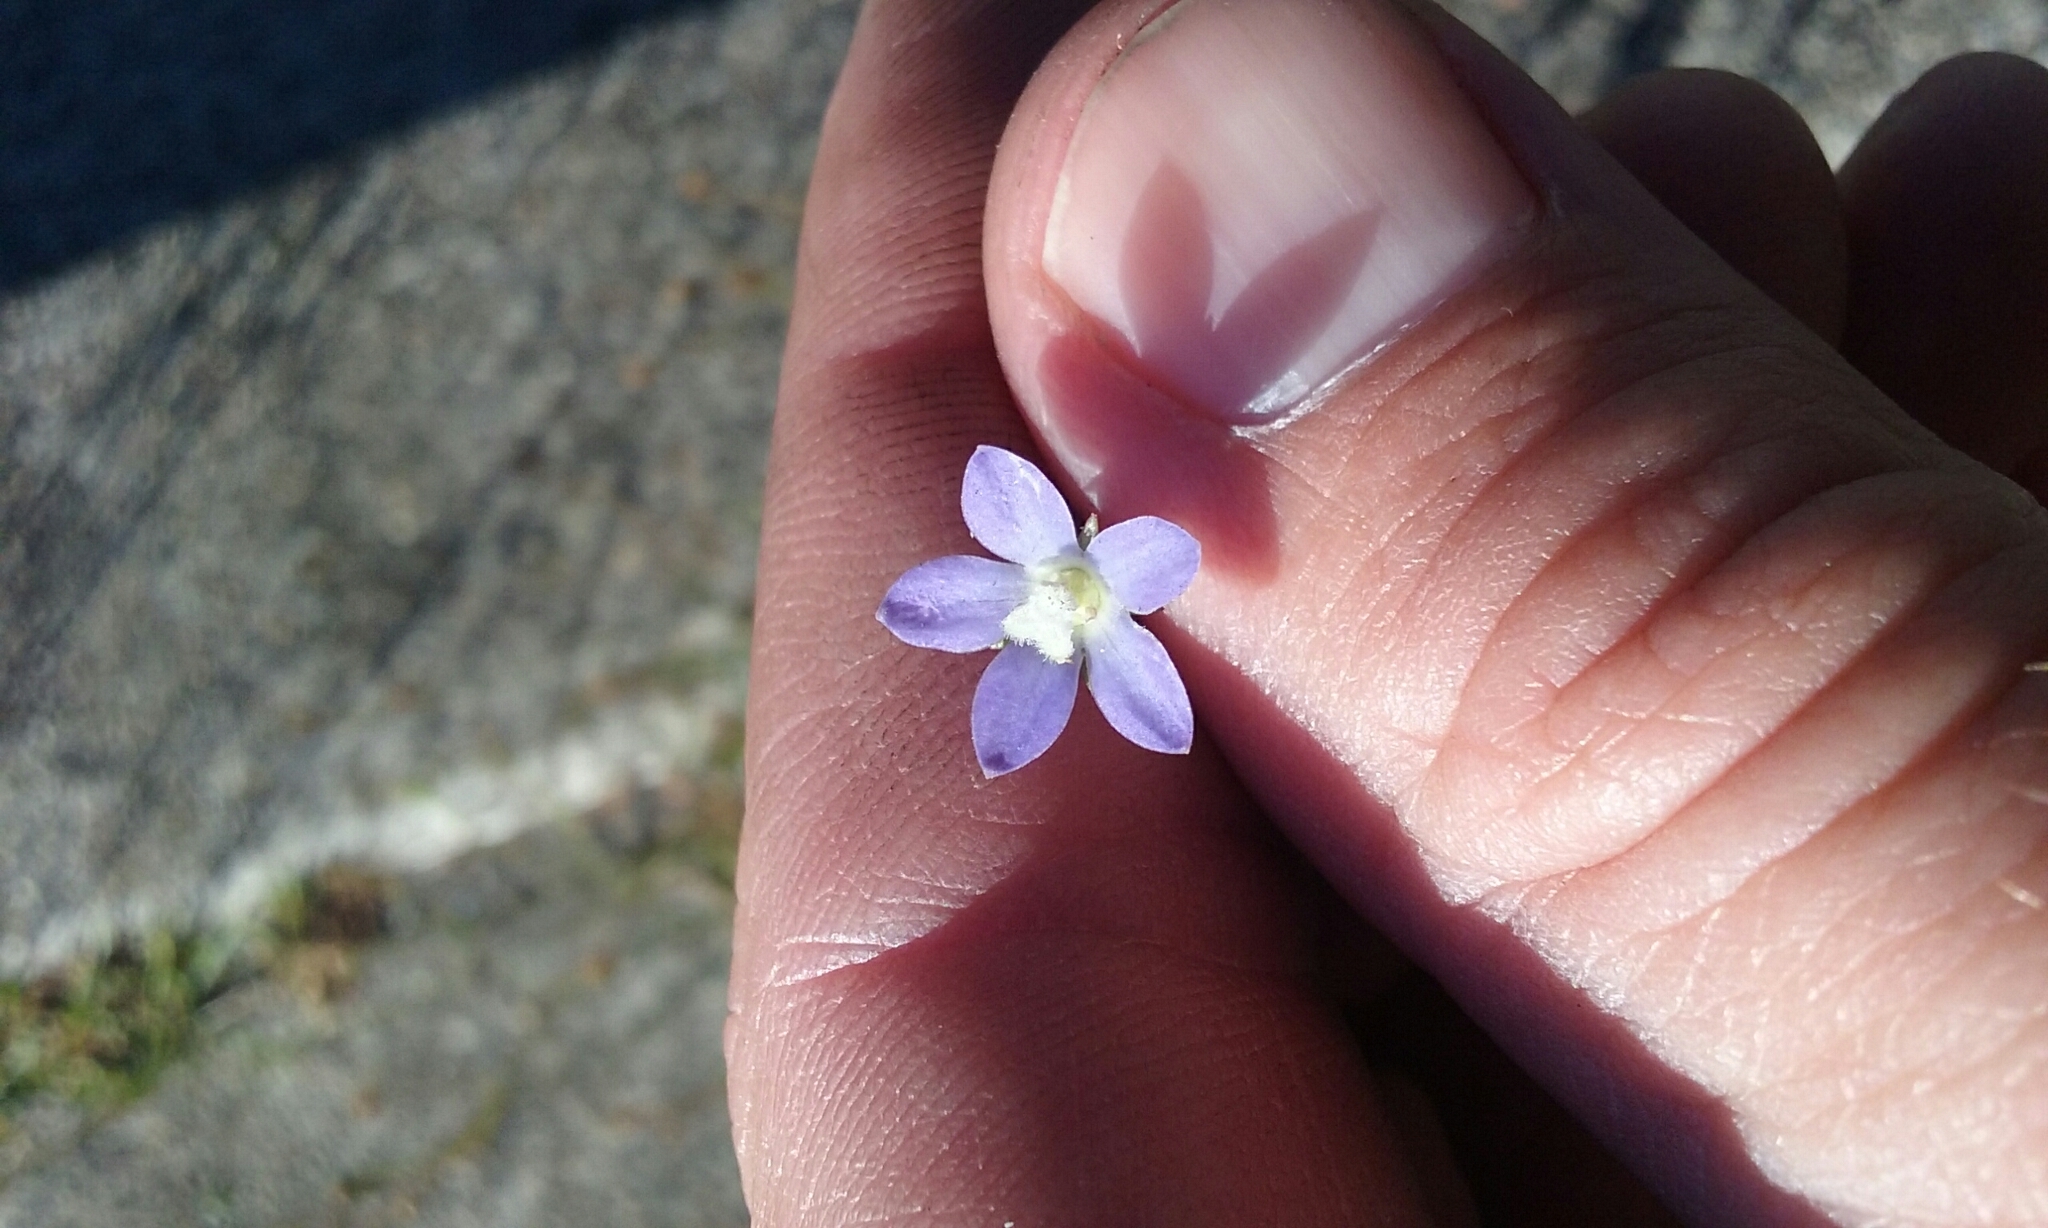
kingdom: Plantae
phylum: Tracheophyta
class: Magnoliopsida
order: Asterales
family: Campanulaceae
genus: Wahlenbergia
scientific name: Wahlenbergia marginata
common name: Southern rockbell
